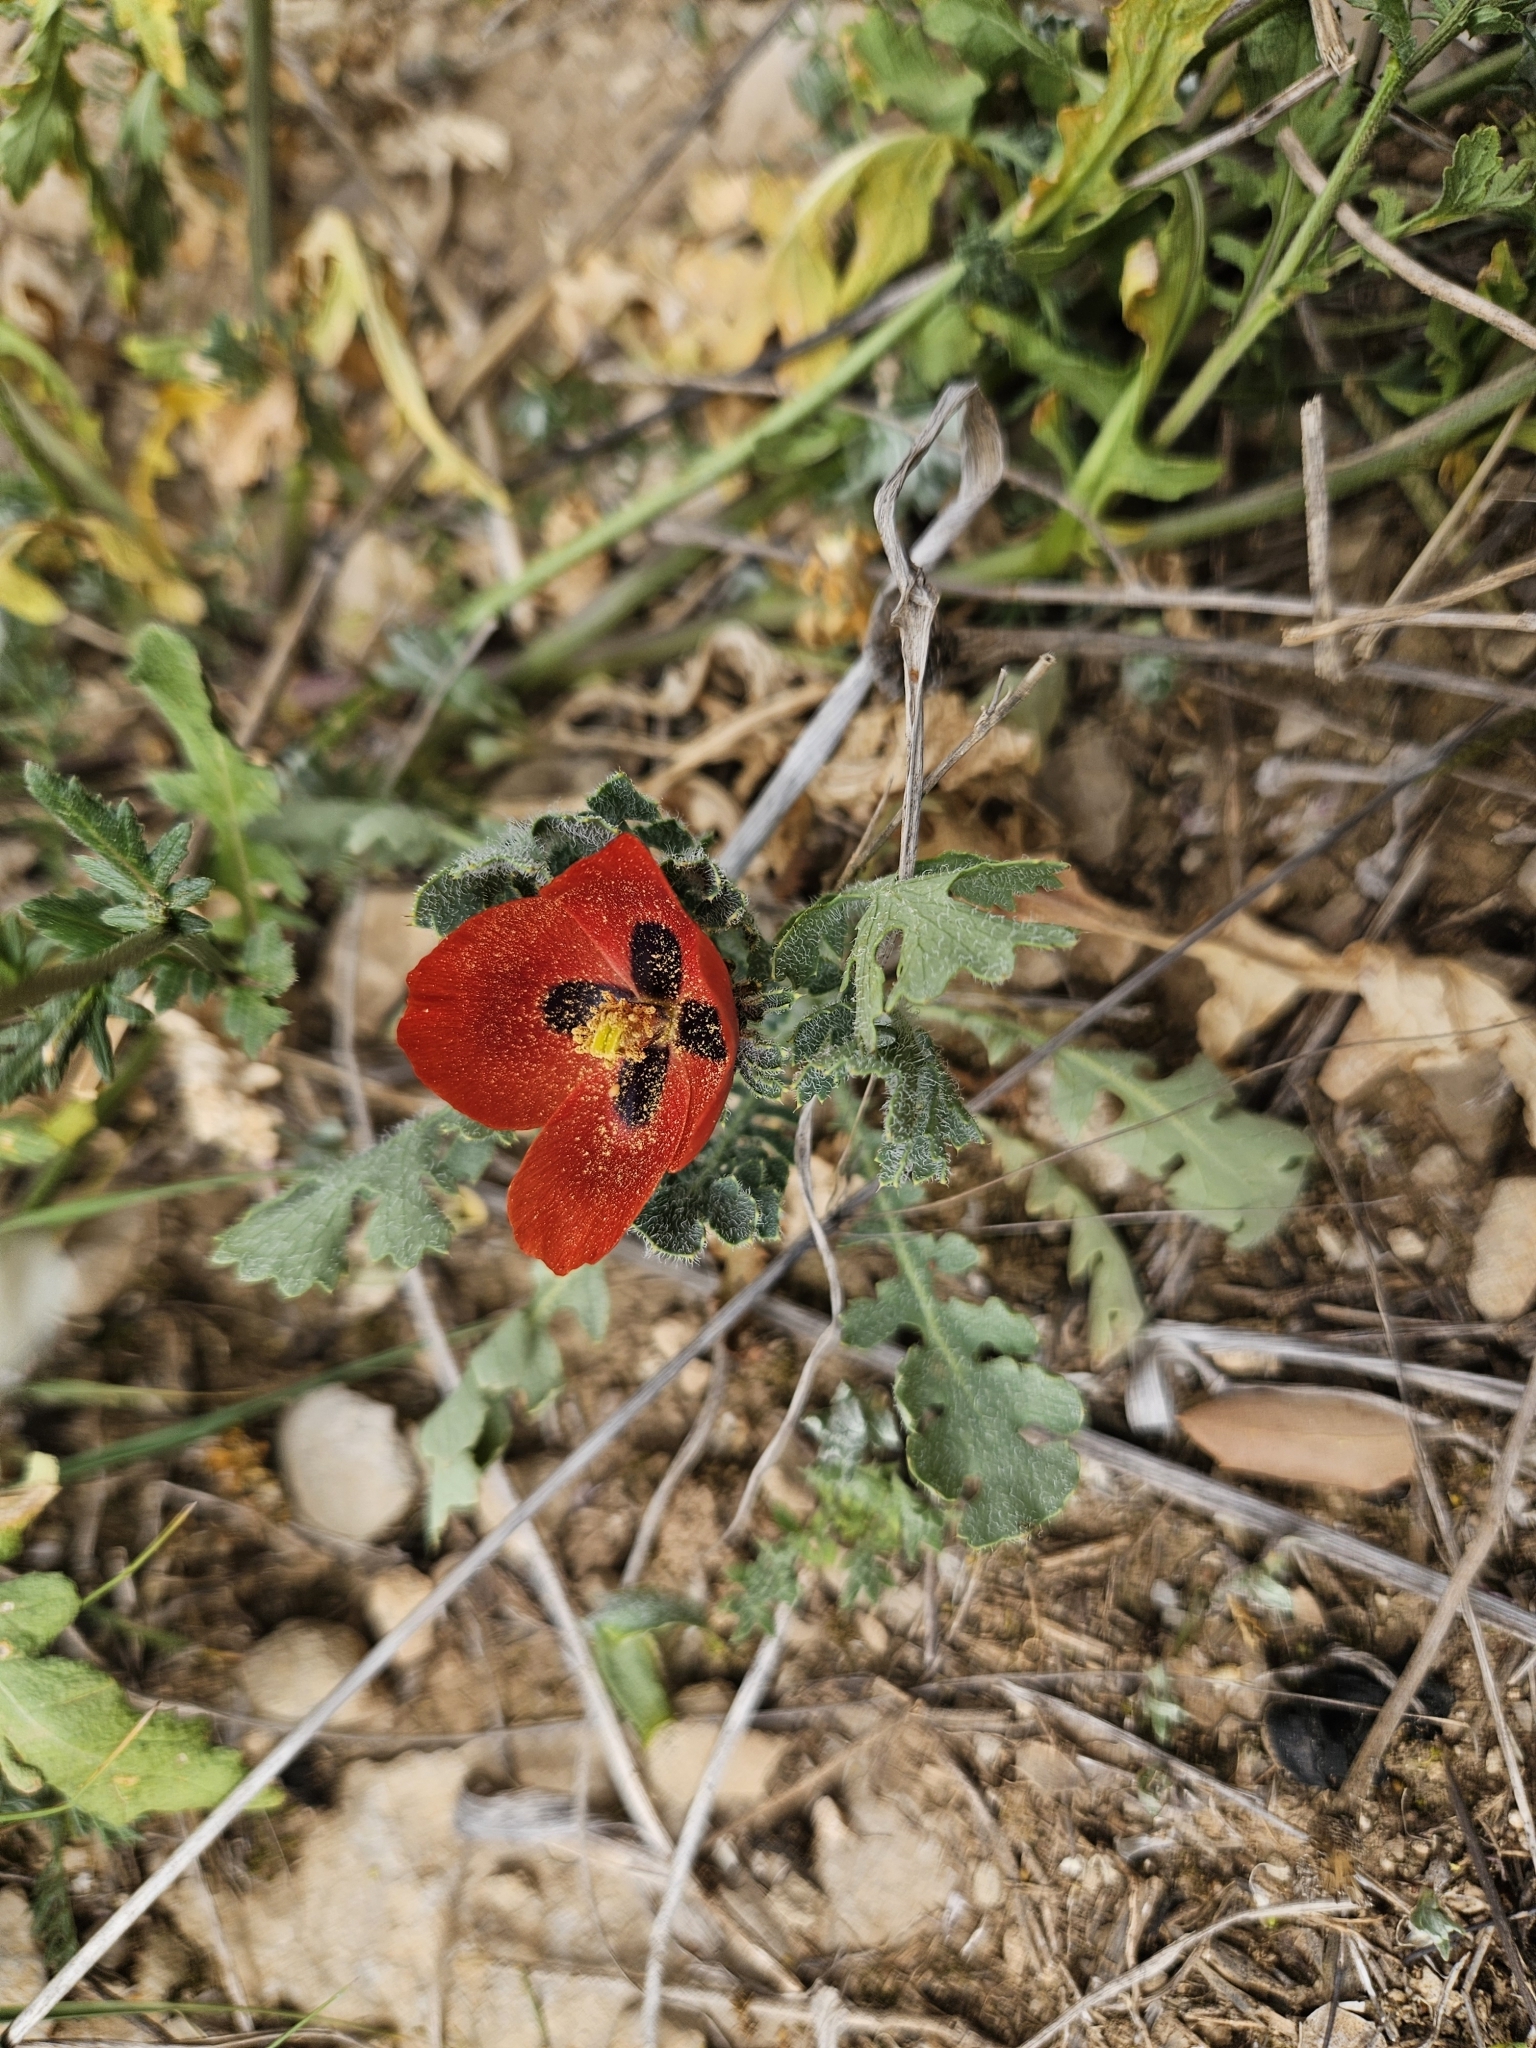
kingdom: Plantae
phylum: Tracheophyta
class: Magnoliopsida
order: Ranunculales
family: Papaveraceae
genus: Glaucium
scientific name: Glaucium corniculatum
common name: Red horned-poppy
